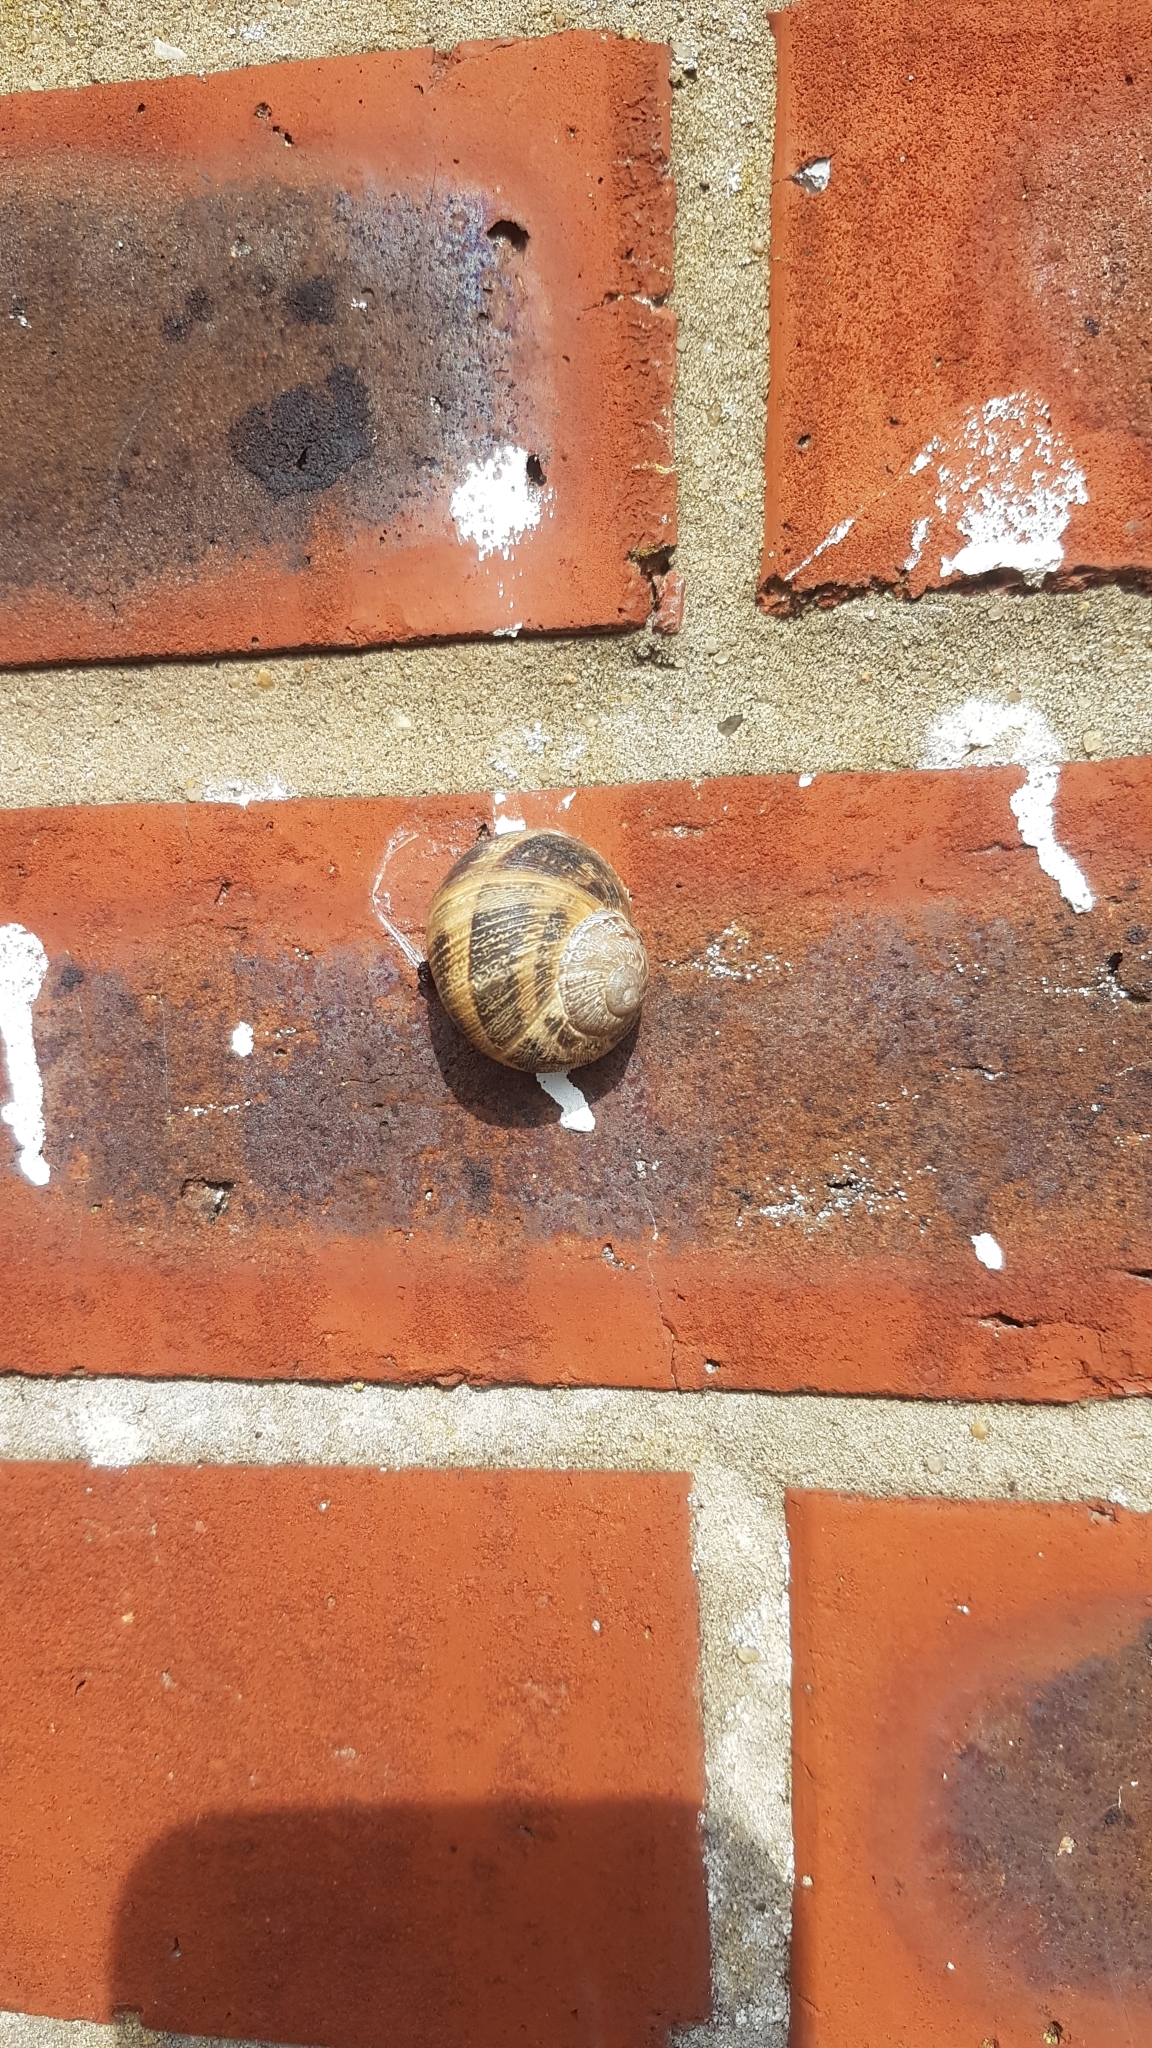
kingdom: Animalia
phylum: Mollusca
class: Gastropoda
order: Stylommatophora
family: Helicidae
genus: Cornu
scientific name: Cornu aspersum
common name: Brown garden snail
